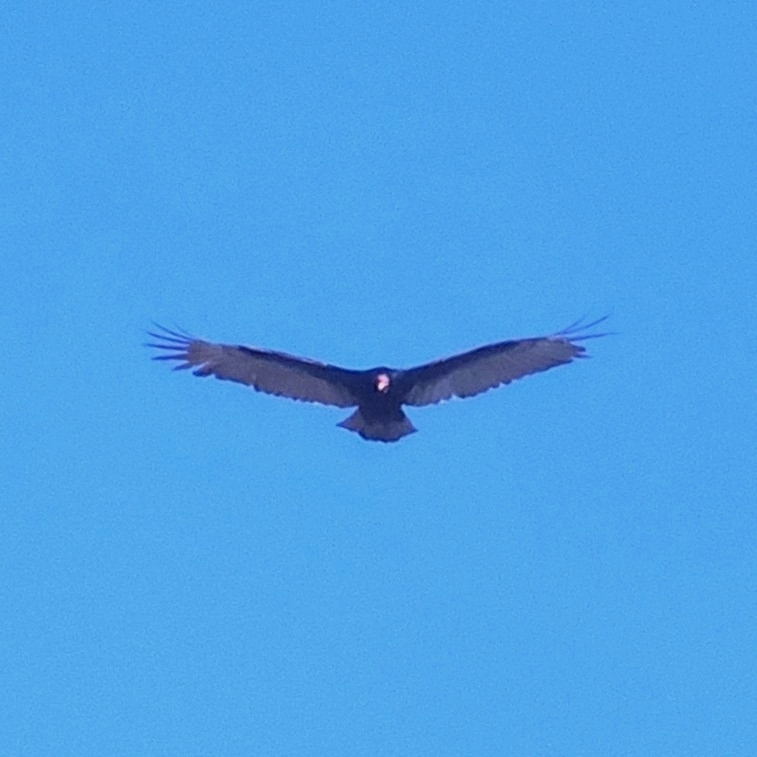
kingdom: Animalia
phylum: Chordata
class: Aves
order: Accipitriformes
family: Cathartidae
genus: Cathartes
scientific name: Cathartes aura
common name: Turkey vulture
